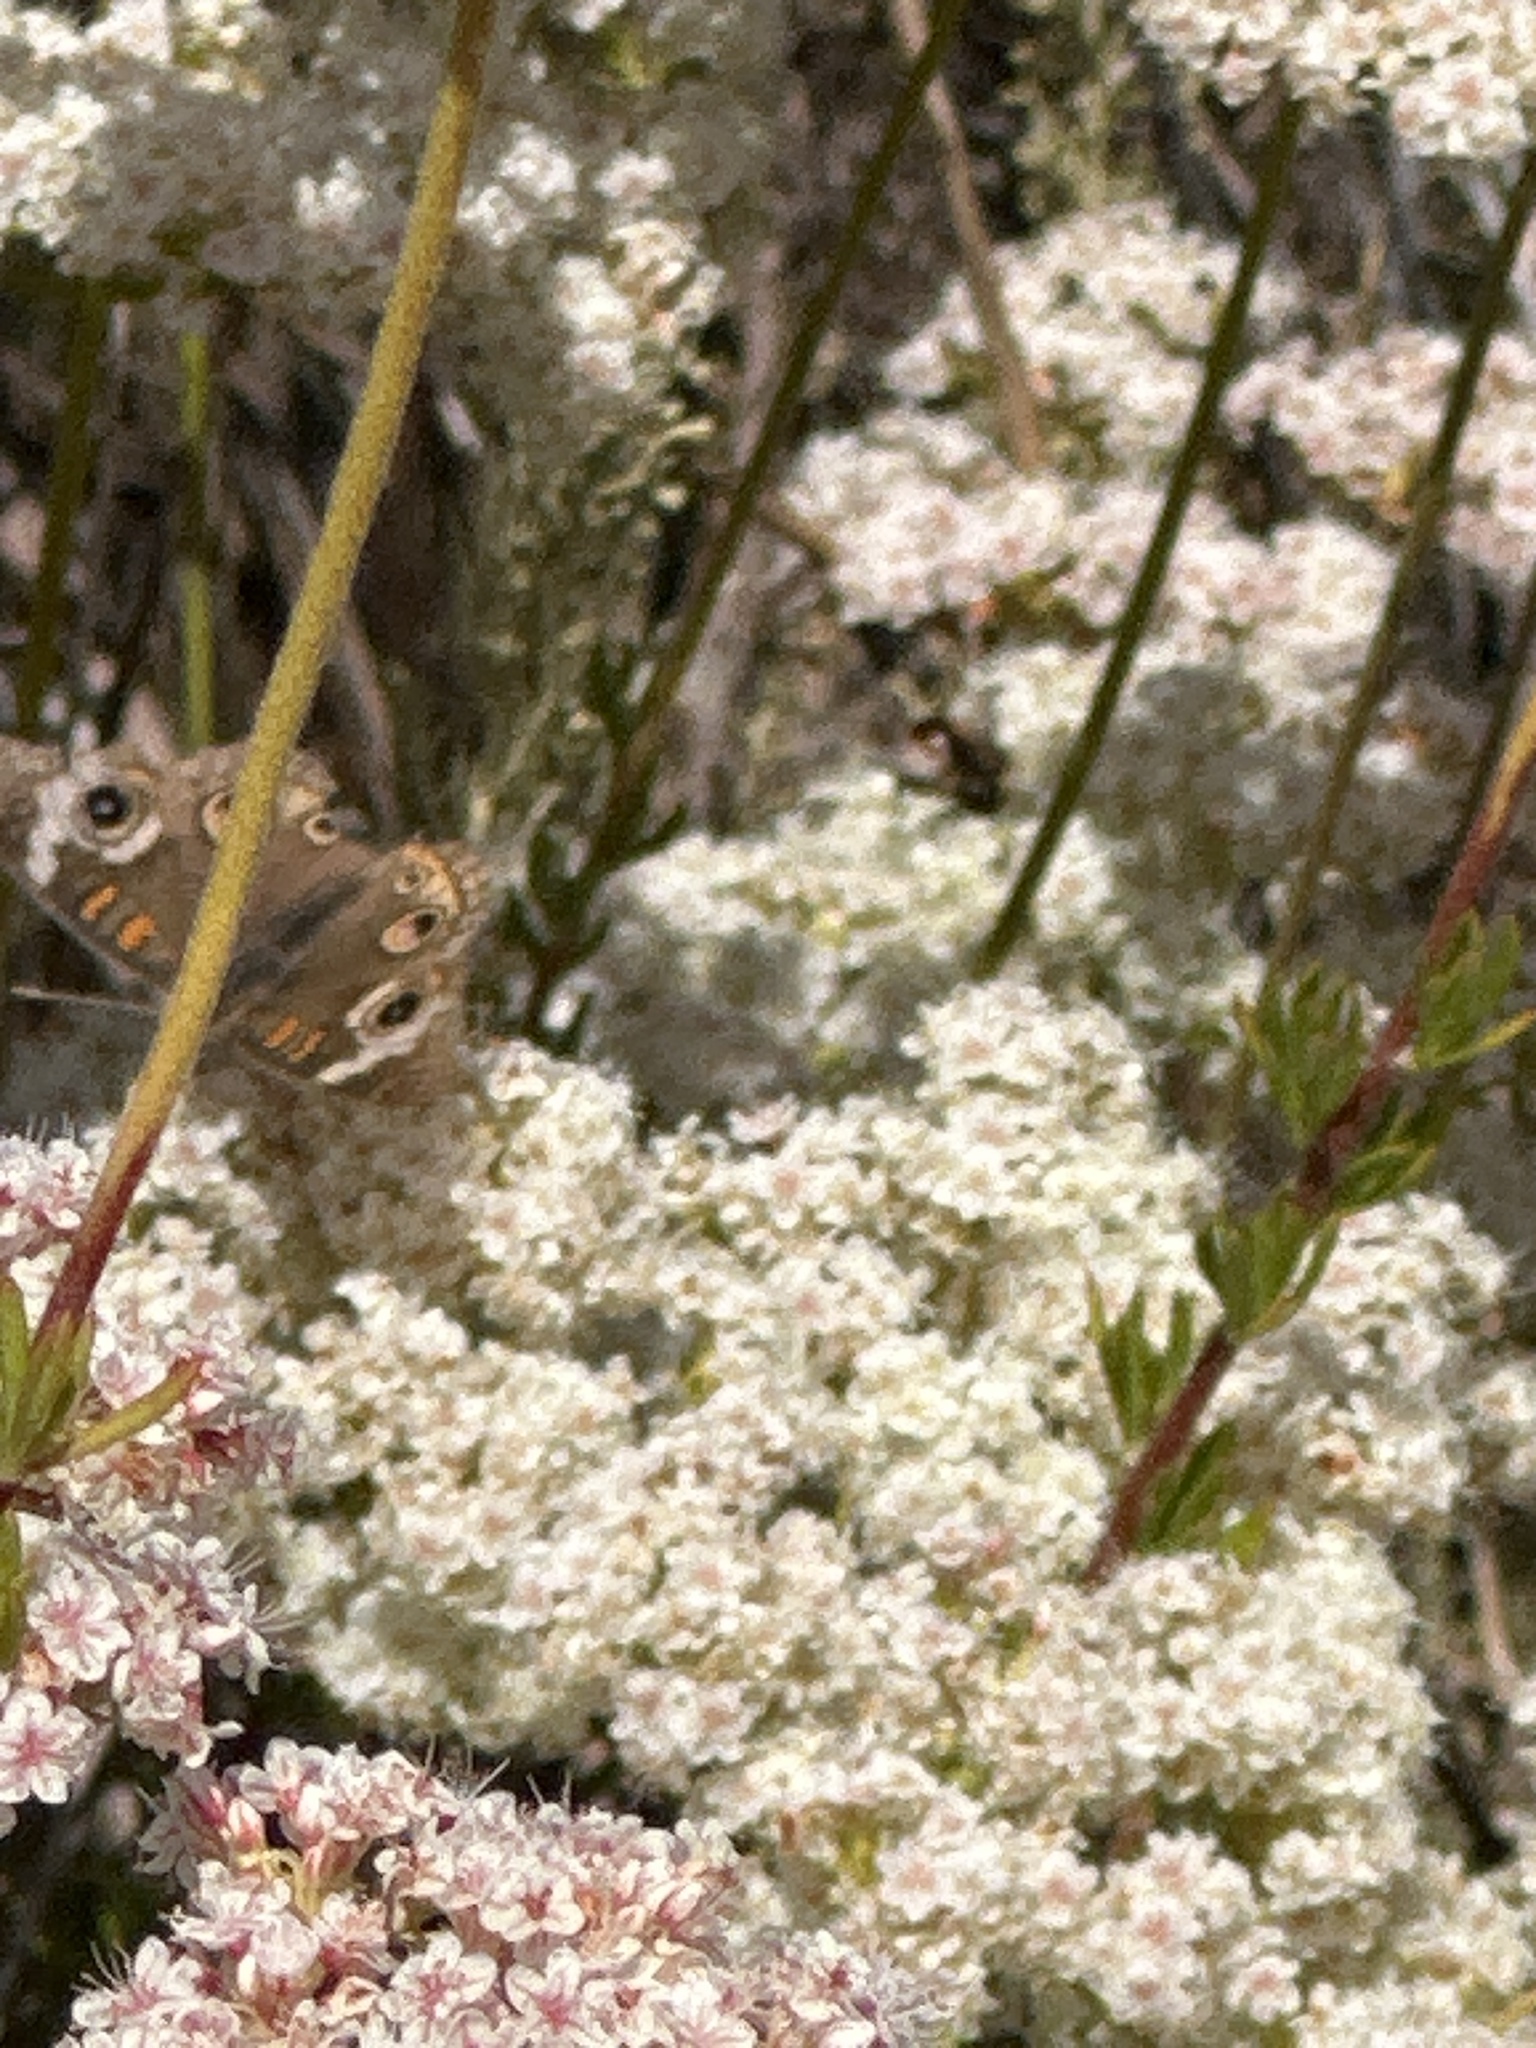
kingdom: Animalia
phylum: Arthropoda
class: Insecta
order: Lepidoptera
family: Nymphalidae
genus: Junonia
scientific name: Junonia grisea
